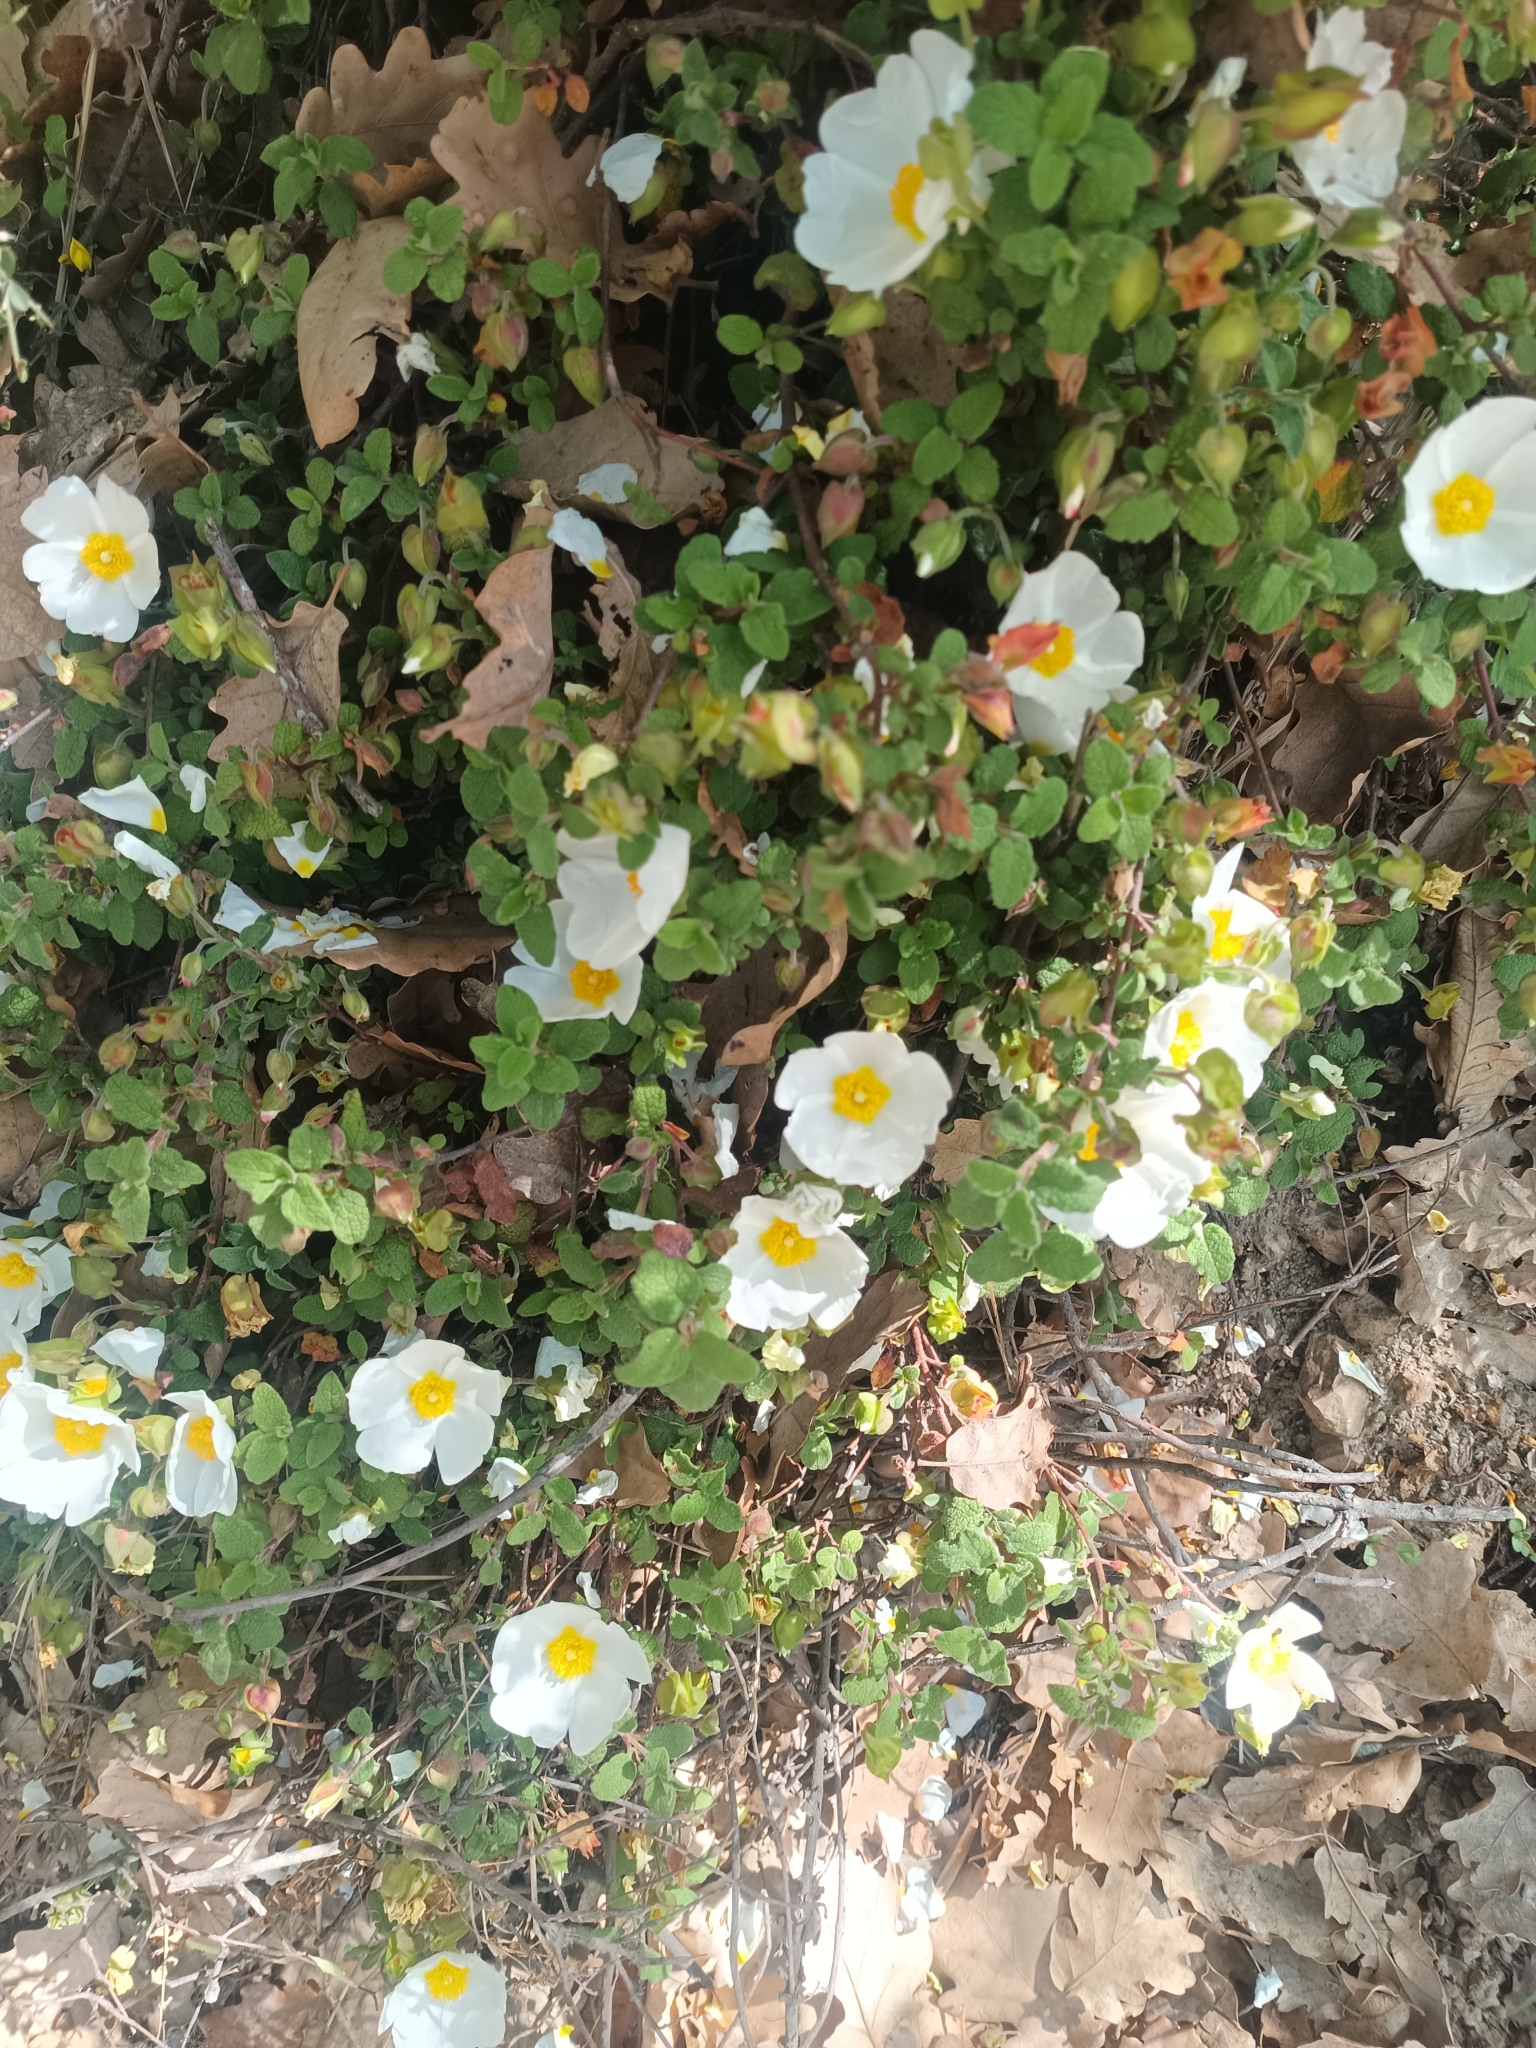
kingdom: Plantae
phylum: Tracheophyta
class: Magnoliopsida
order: Malvales
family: Cistaceae
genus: Cistus
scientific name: Cistus salviifolius
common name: Salvia cistus
